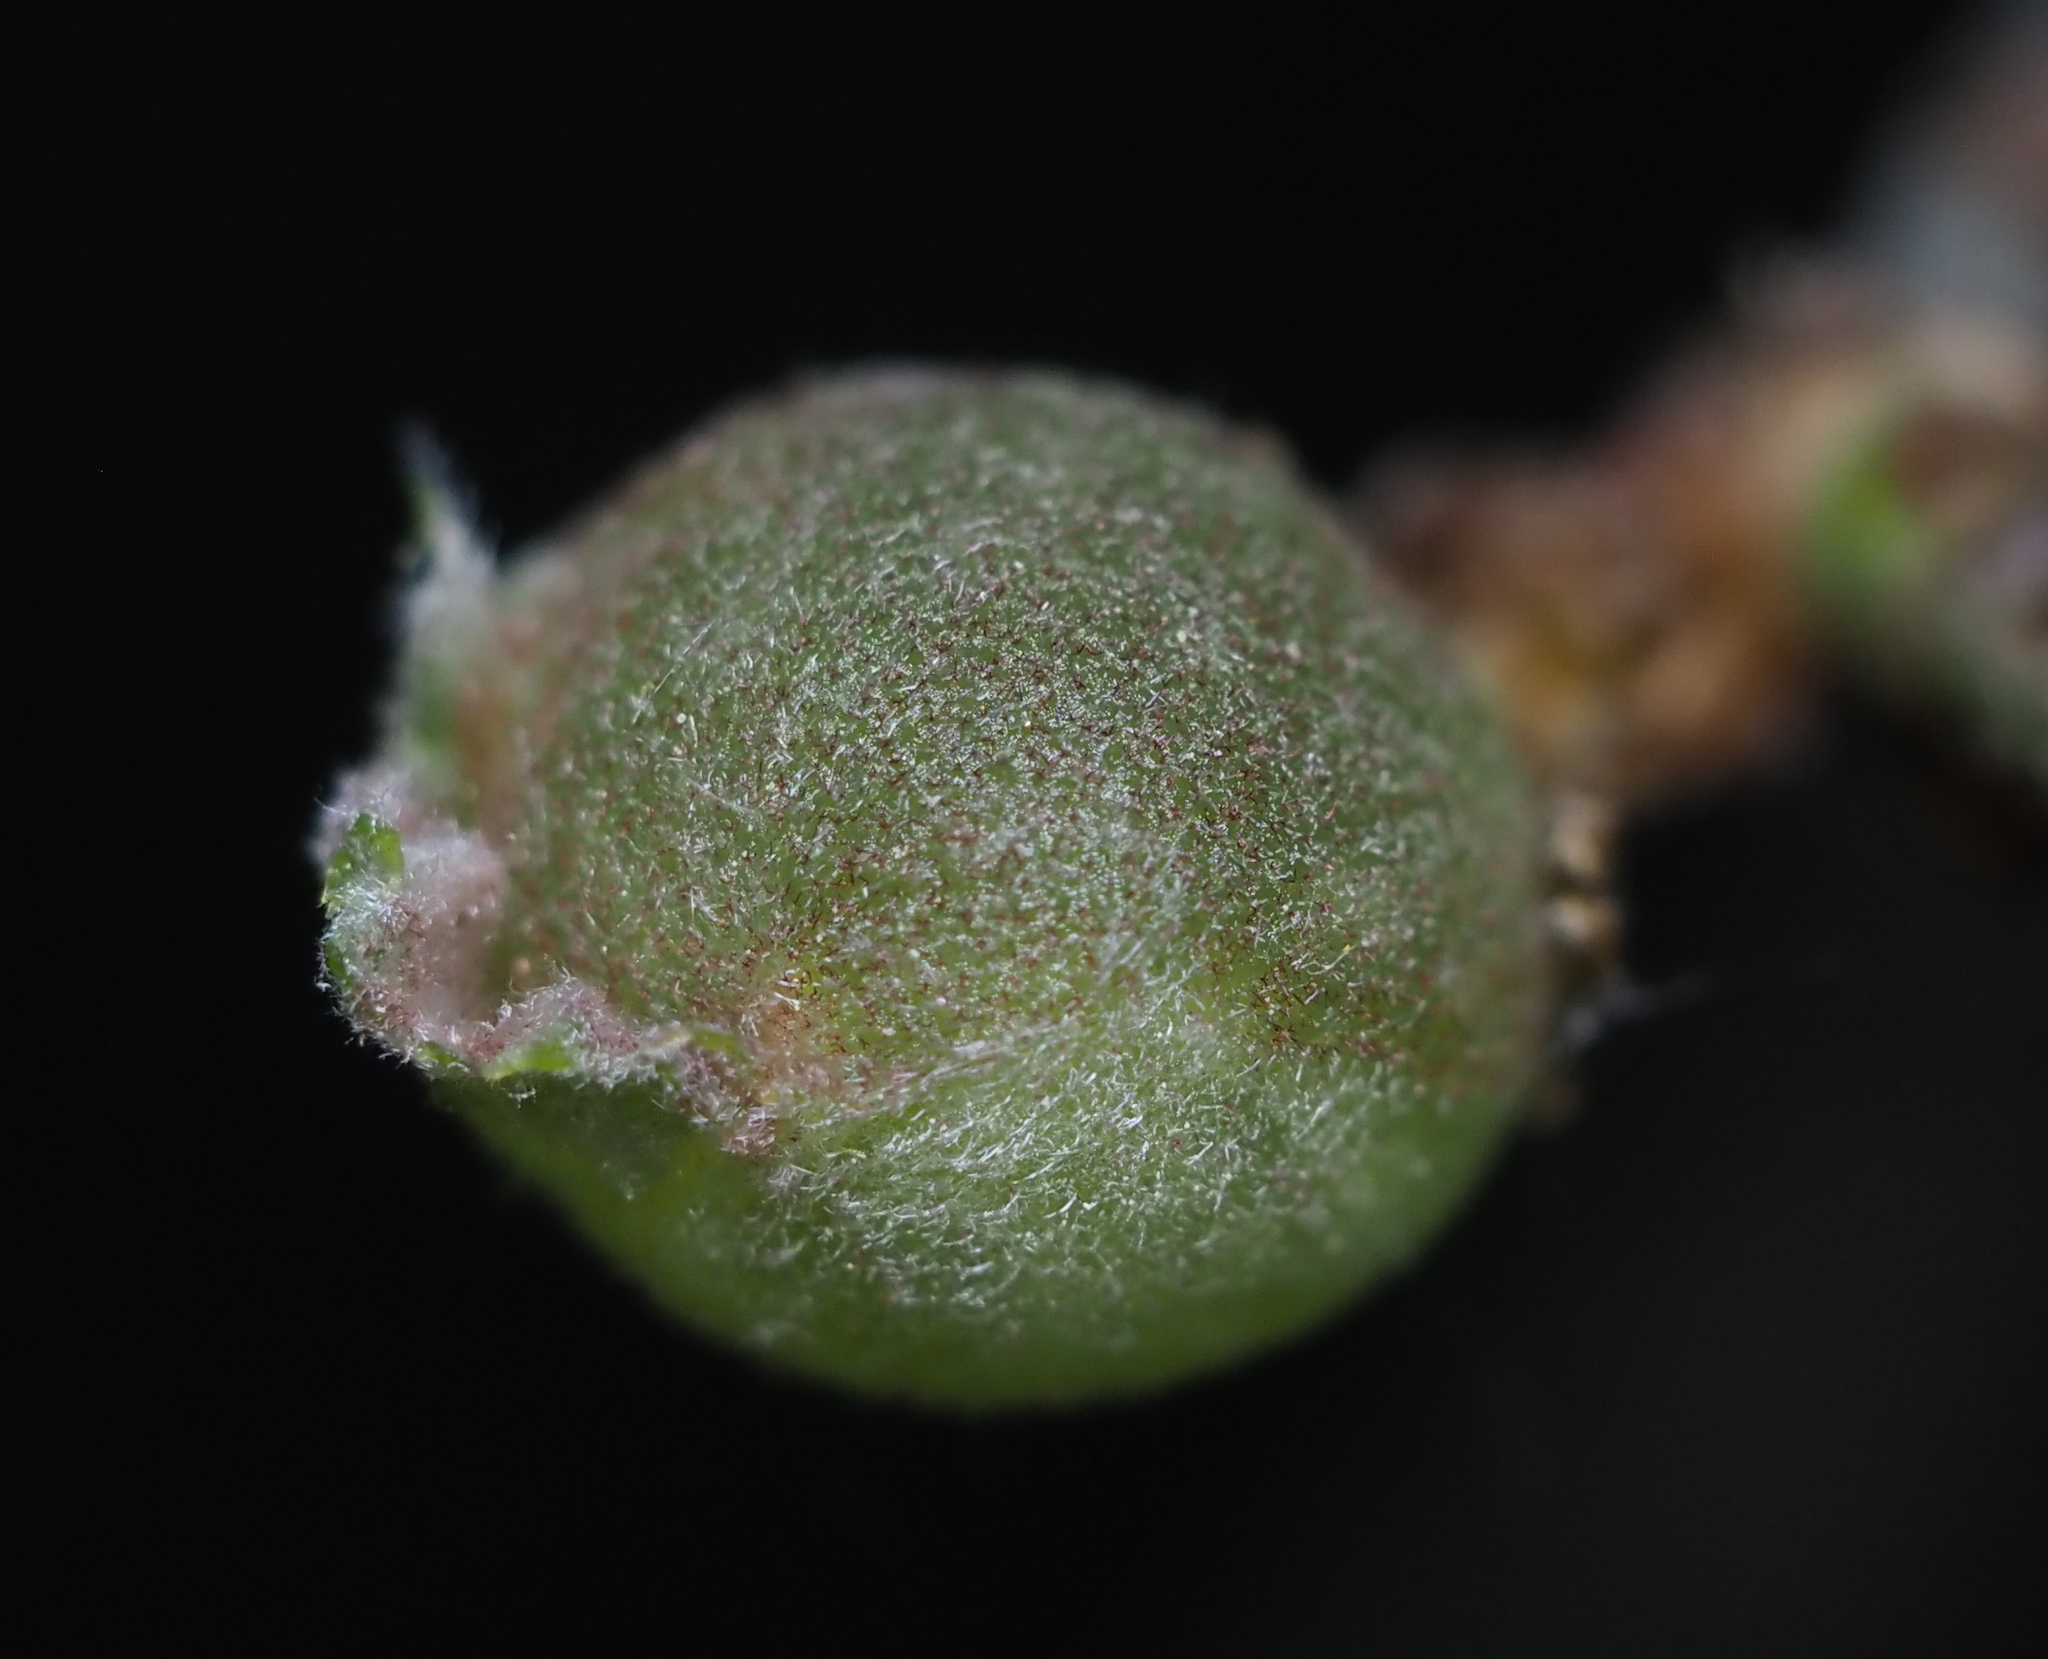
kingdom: Animalia
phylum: Arthropoda
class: Insecta
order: Hymenoptera
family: Cynipidae
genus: Dryocosmus
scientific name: Dryocosmus quercuspalustris
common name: Succulent oak gall wasp
